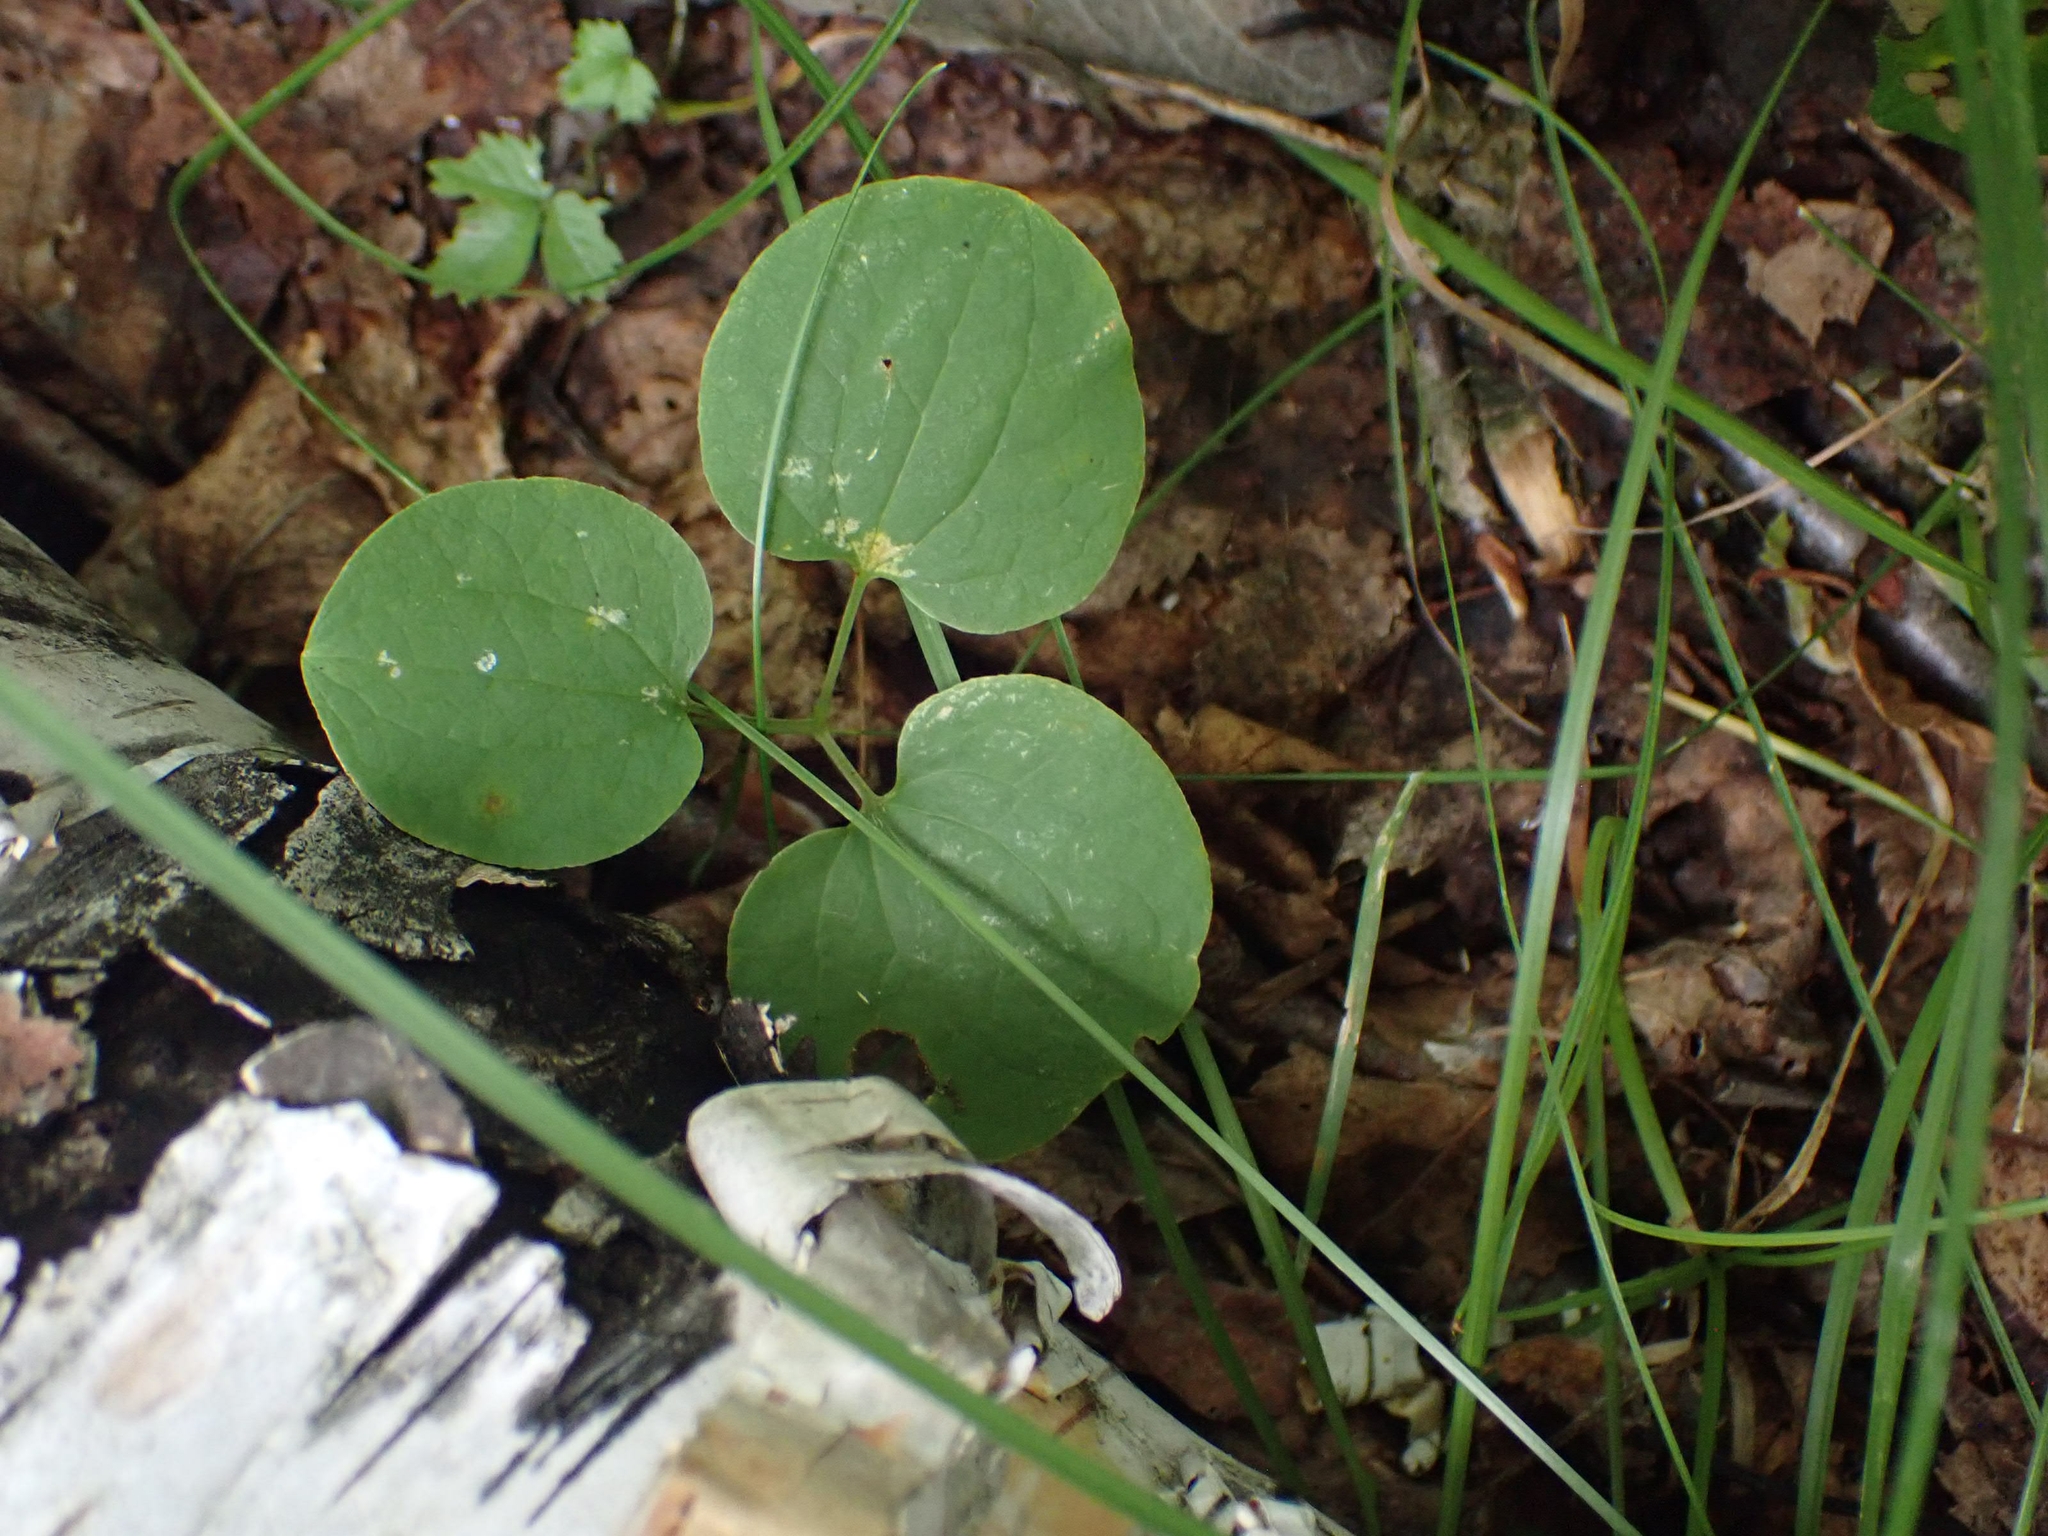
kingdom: Plantae
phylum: Tracheophyta
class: Liliopsida
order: Liliales
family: Smilacaceae
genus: Smilax
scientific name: Smilax lasioneura
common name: Blue ridge carrionflower
